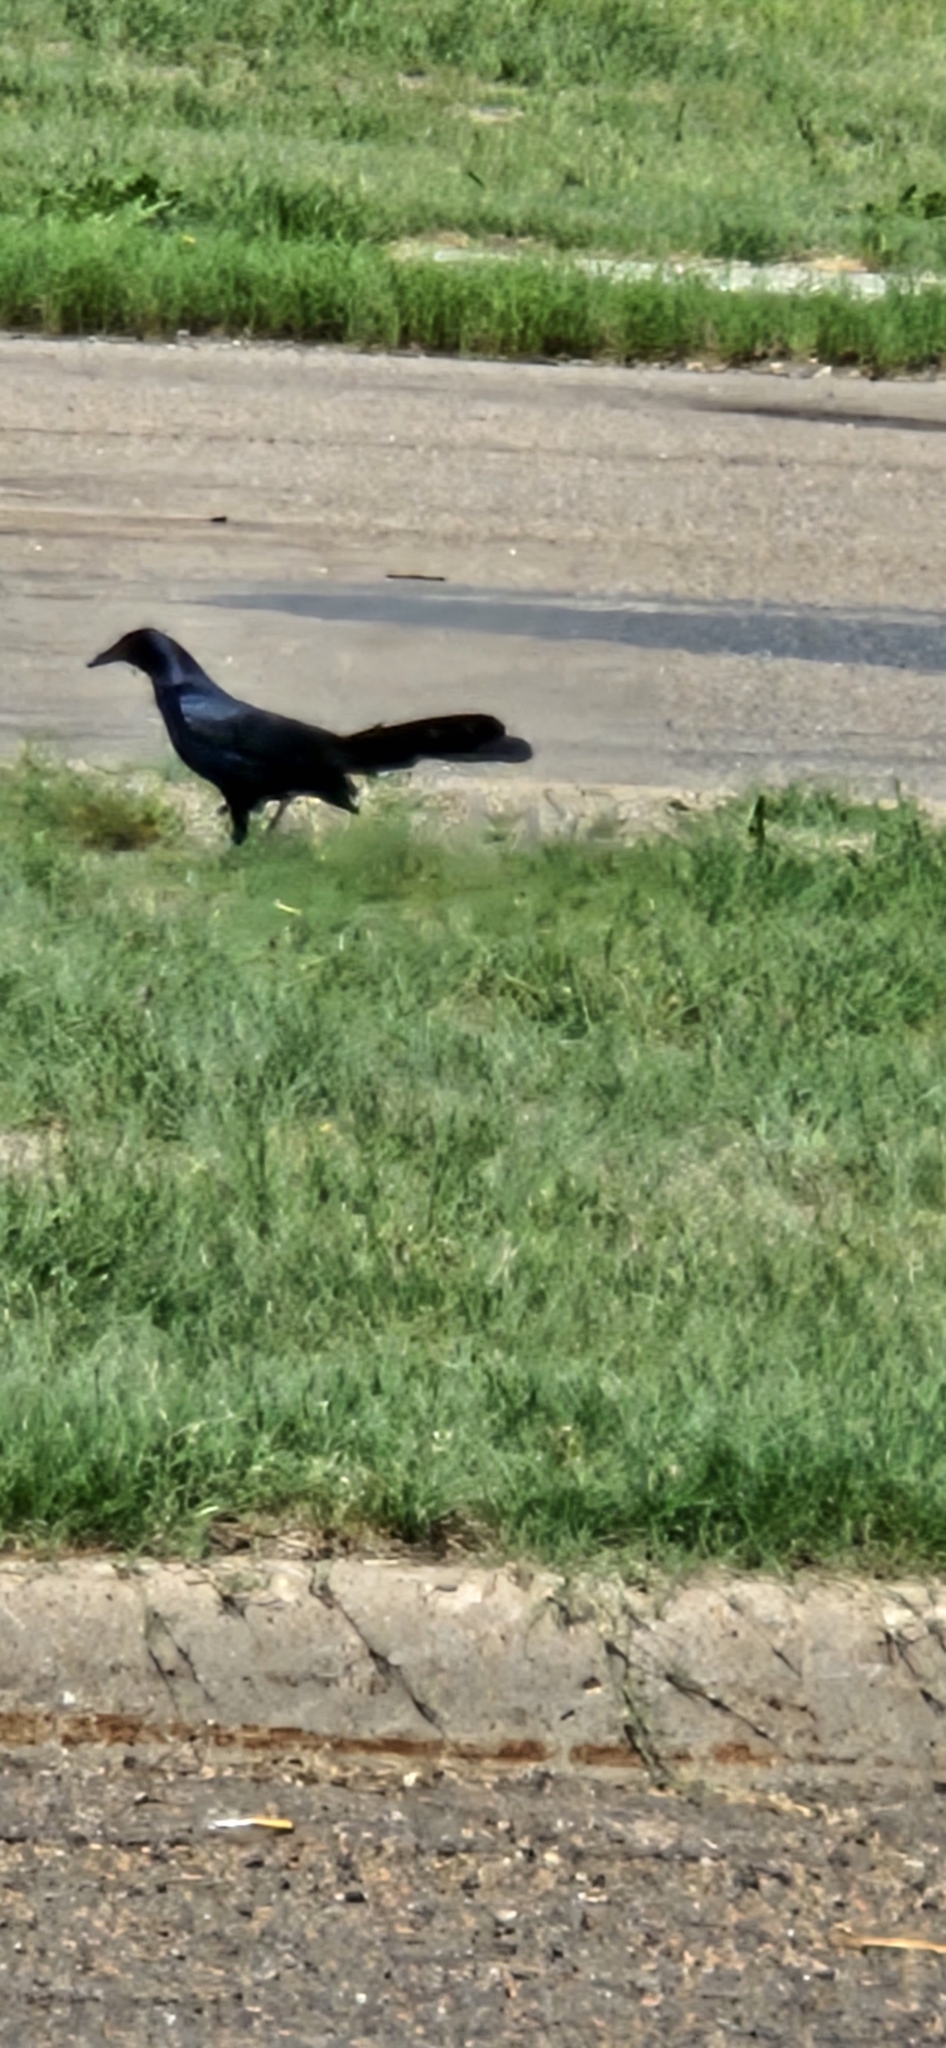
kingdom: Animalia
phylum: Chordata
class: Aves
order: Passeriformes
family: Icteridae
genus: Quiscalus
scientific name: Quiscalus mexicanus
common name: Great-tailed grackle
